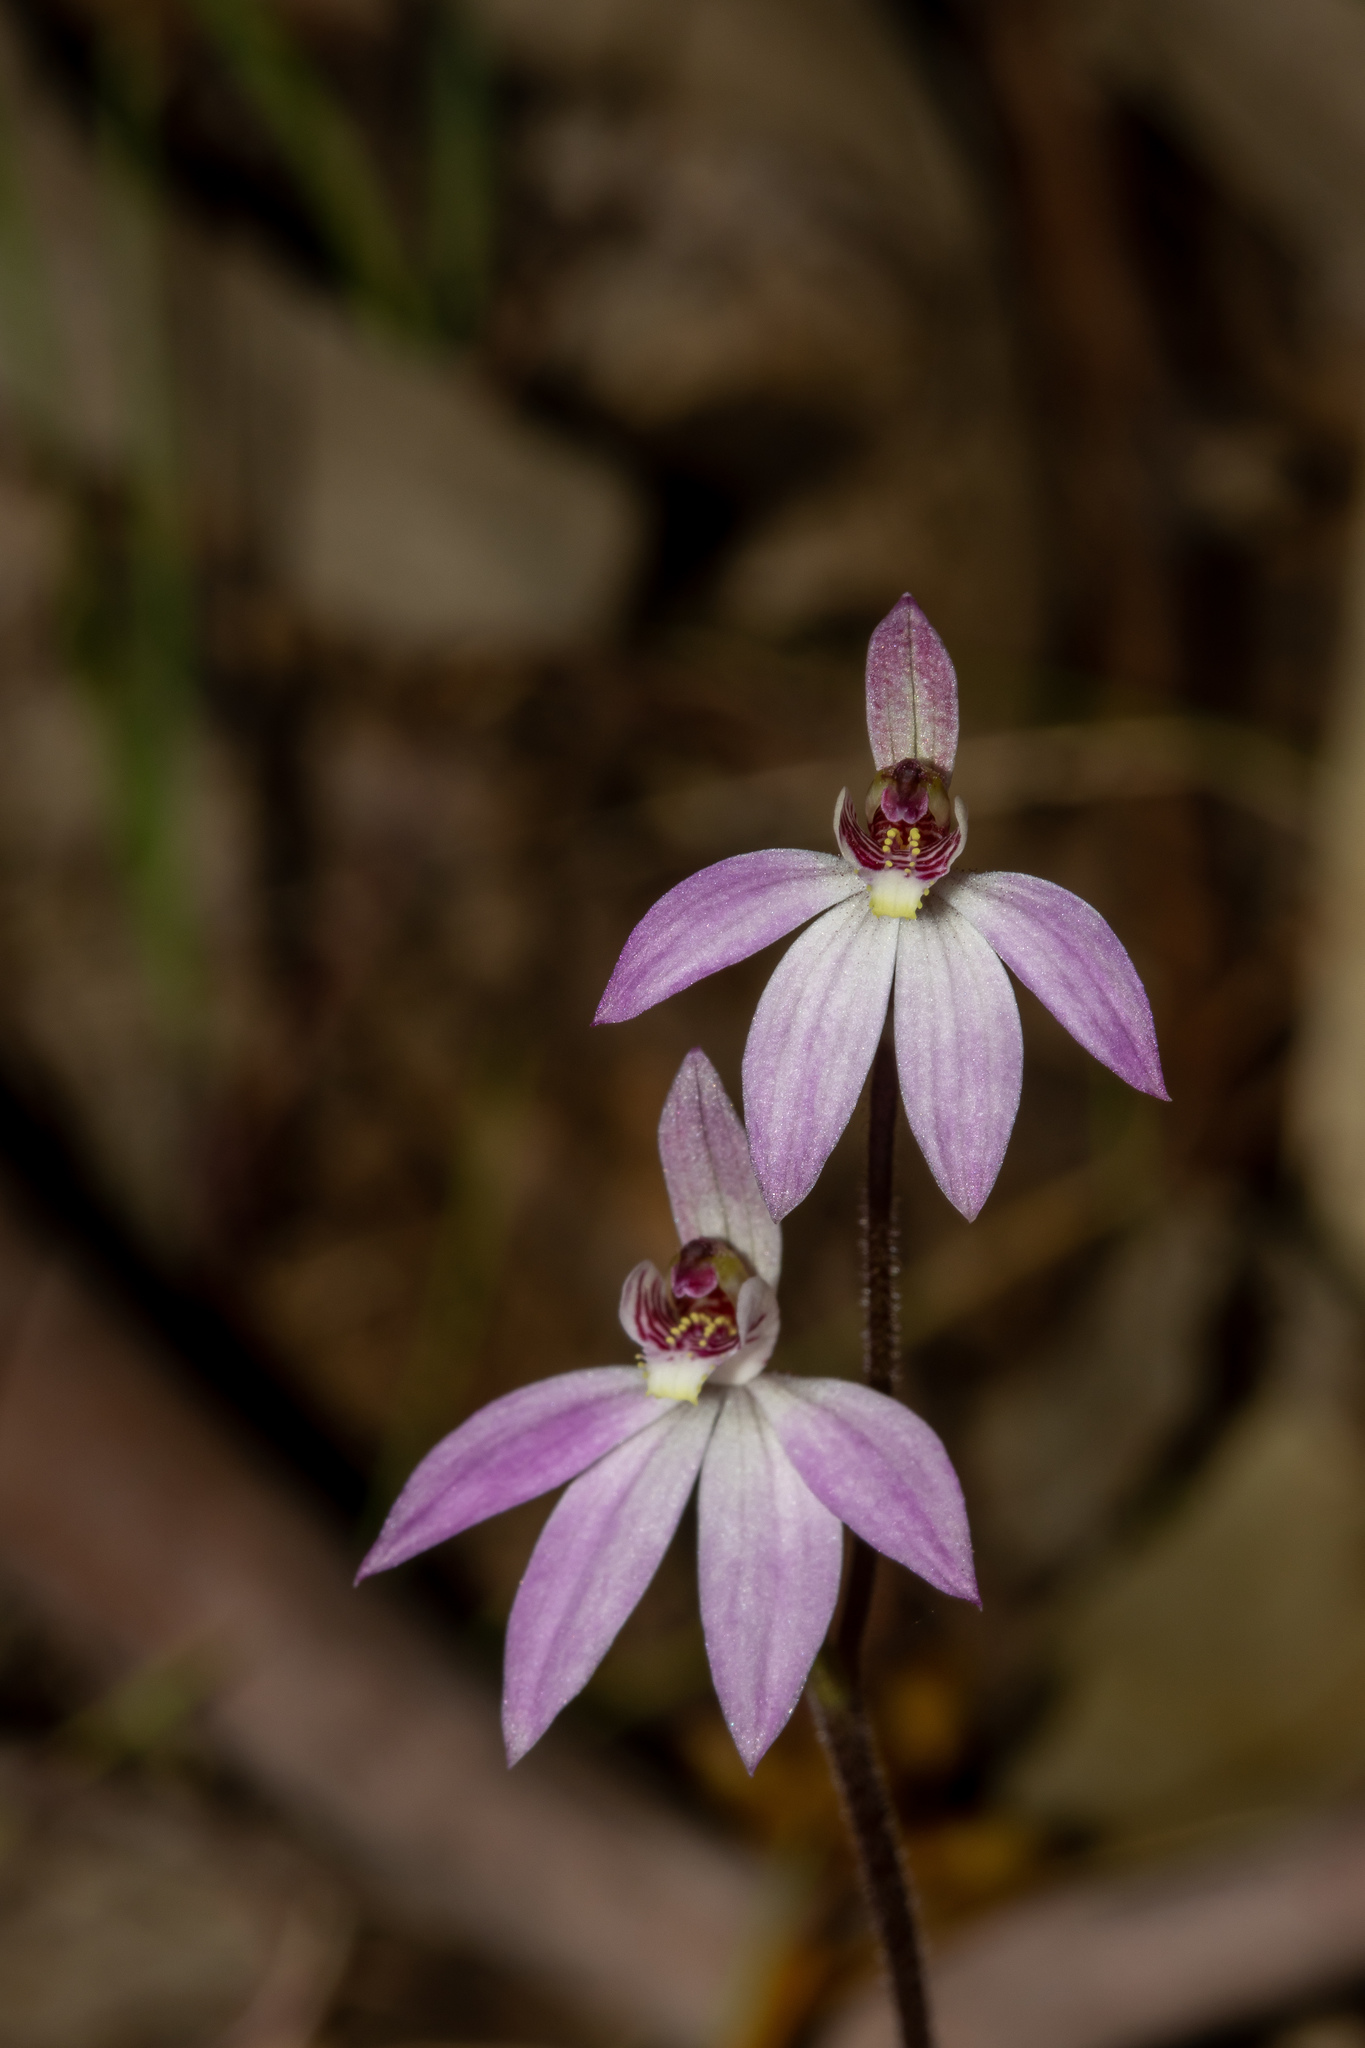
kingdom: Plantae
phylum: Tracheophyta
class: Liliopsida
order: Asparagales
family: Orchidaceae
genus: Caladenia
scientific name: Caladenia carnea
